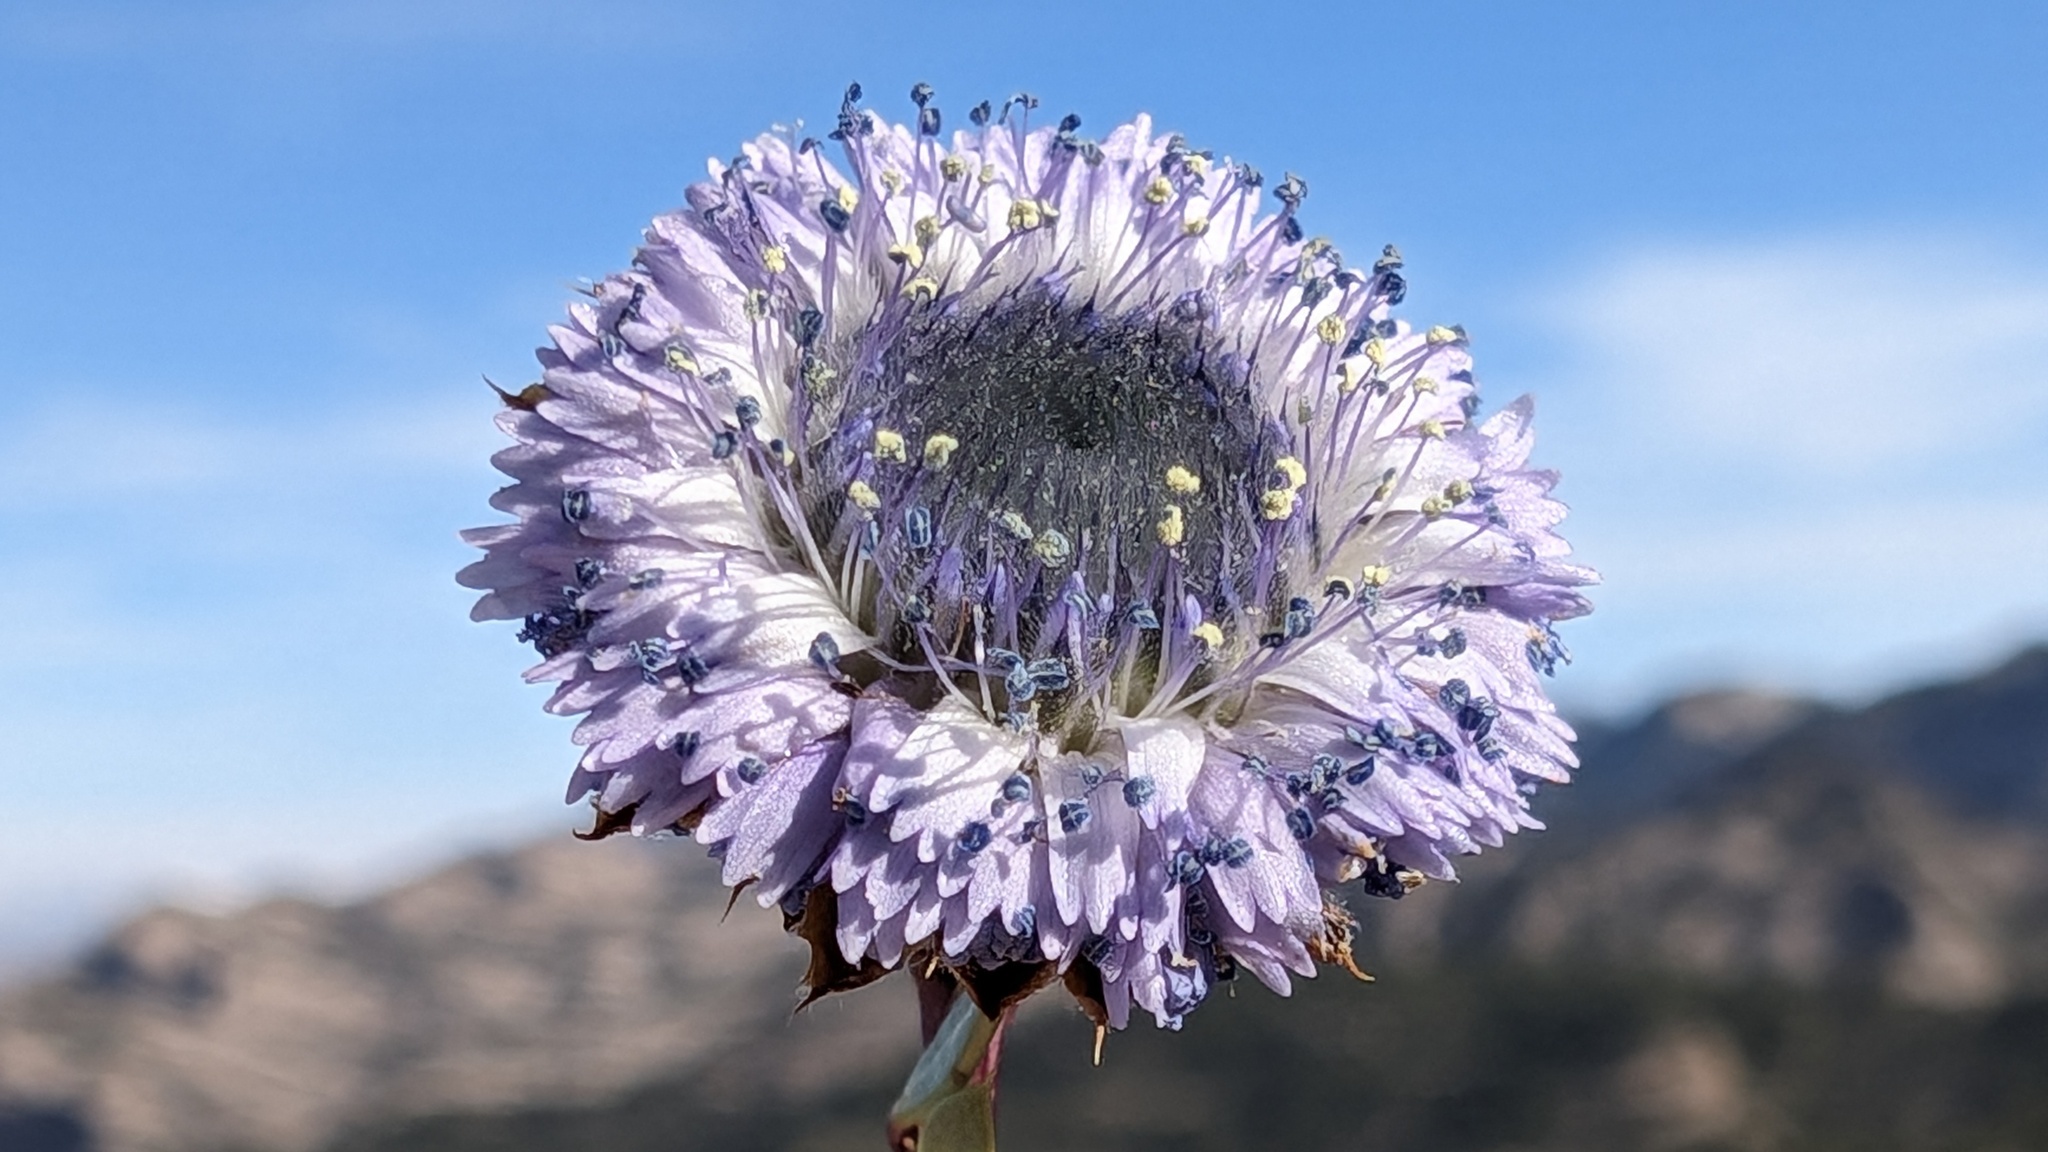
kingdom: Plantae
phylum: Tracheophyta
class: Magnoliopsida
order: Lamiales
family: Plantaginaceae
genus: Globularia
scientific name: Globularia alypum
